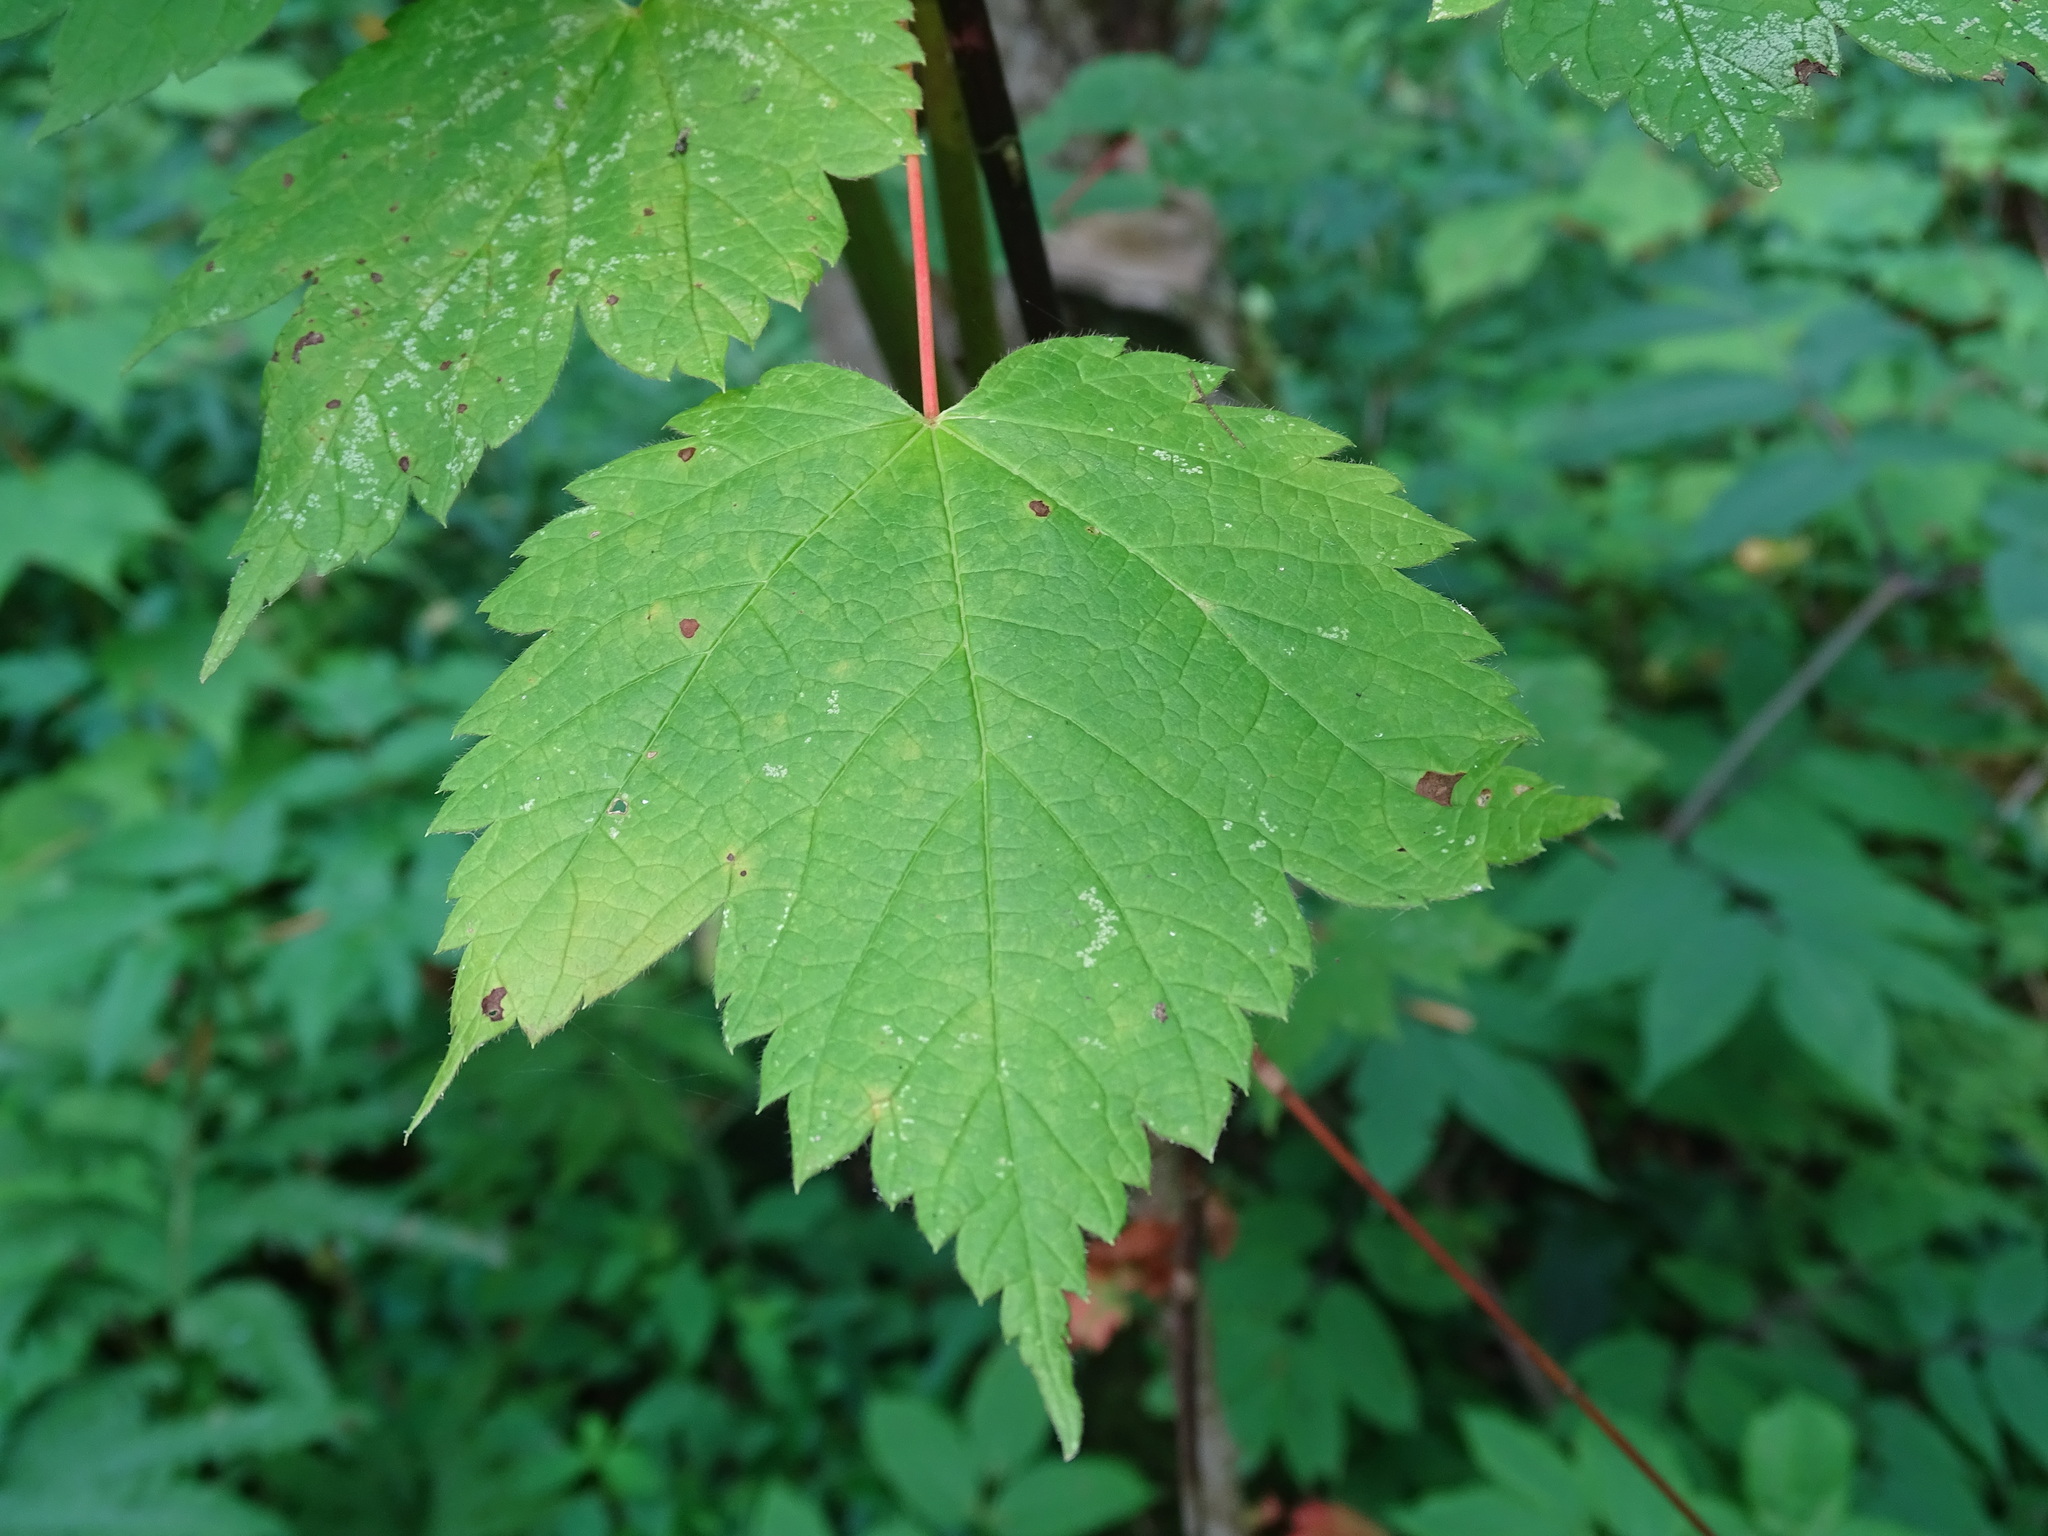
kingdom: Plantae
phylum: Tracheophyta
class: Magnoliopsida
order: Sapindales
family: Sapindaceae
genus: Acer
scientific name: Acer spicatum
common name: Mountain maple
